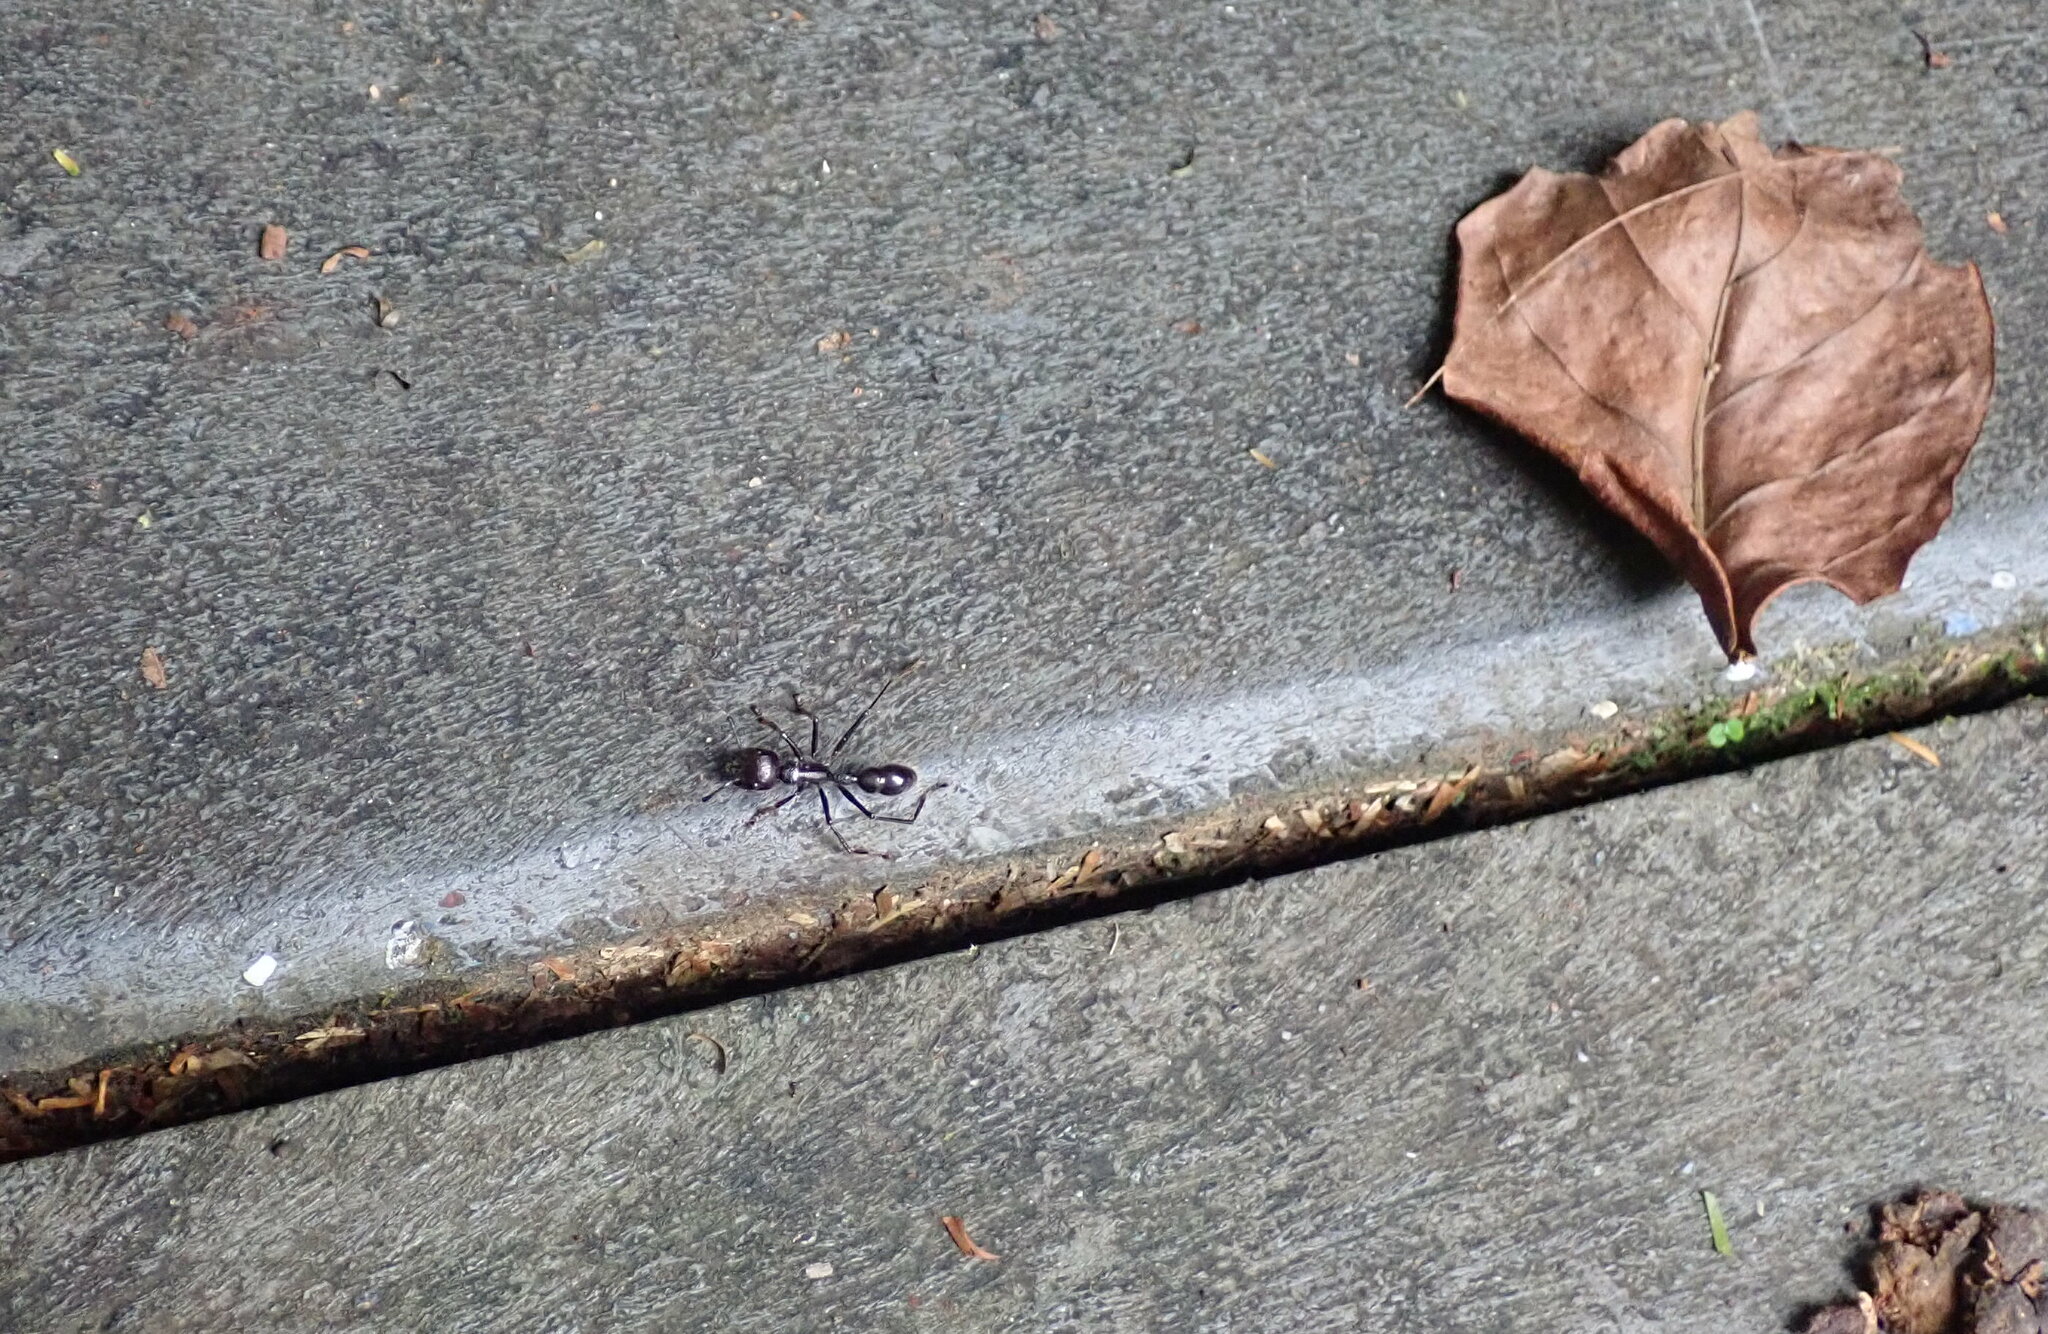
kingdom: Animalia
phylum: Arthropoda
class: Insecta
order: Hymenoptera
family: Formicidae
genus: Paraponera
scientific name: Paraponera clavata
